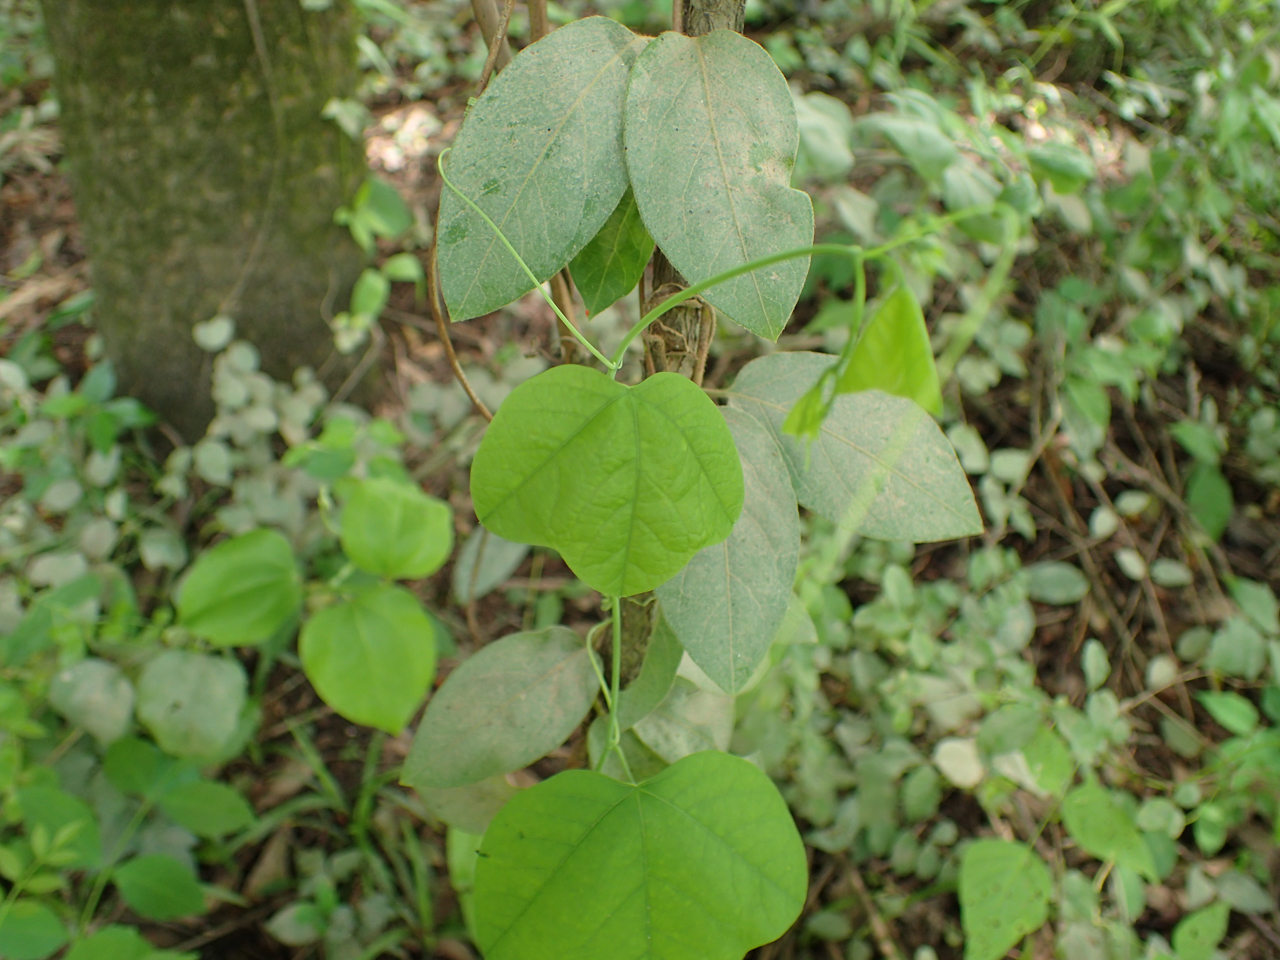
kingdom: Plantae
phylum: Tracheophyta
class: Magnoliopsida
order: Malpighiales
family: Passifloraceae
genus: Passiflora
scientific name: Passiflora lutea
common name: Yellow passionflower
